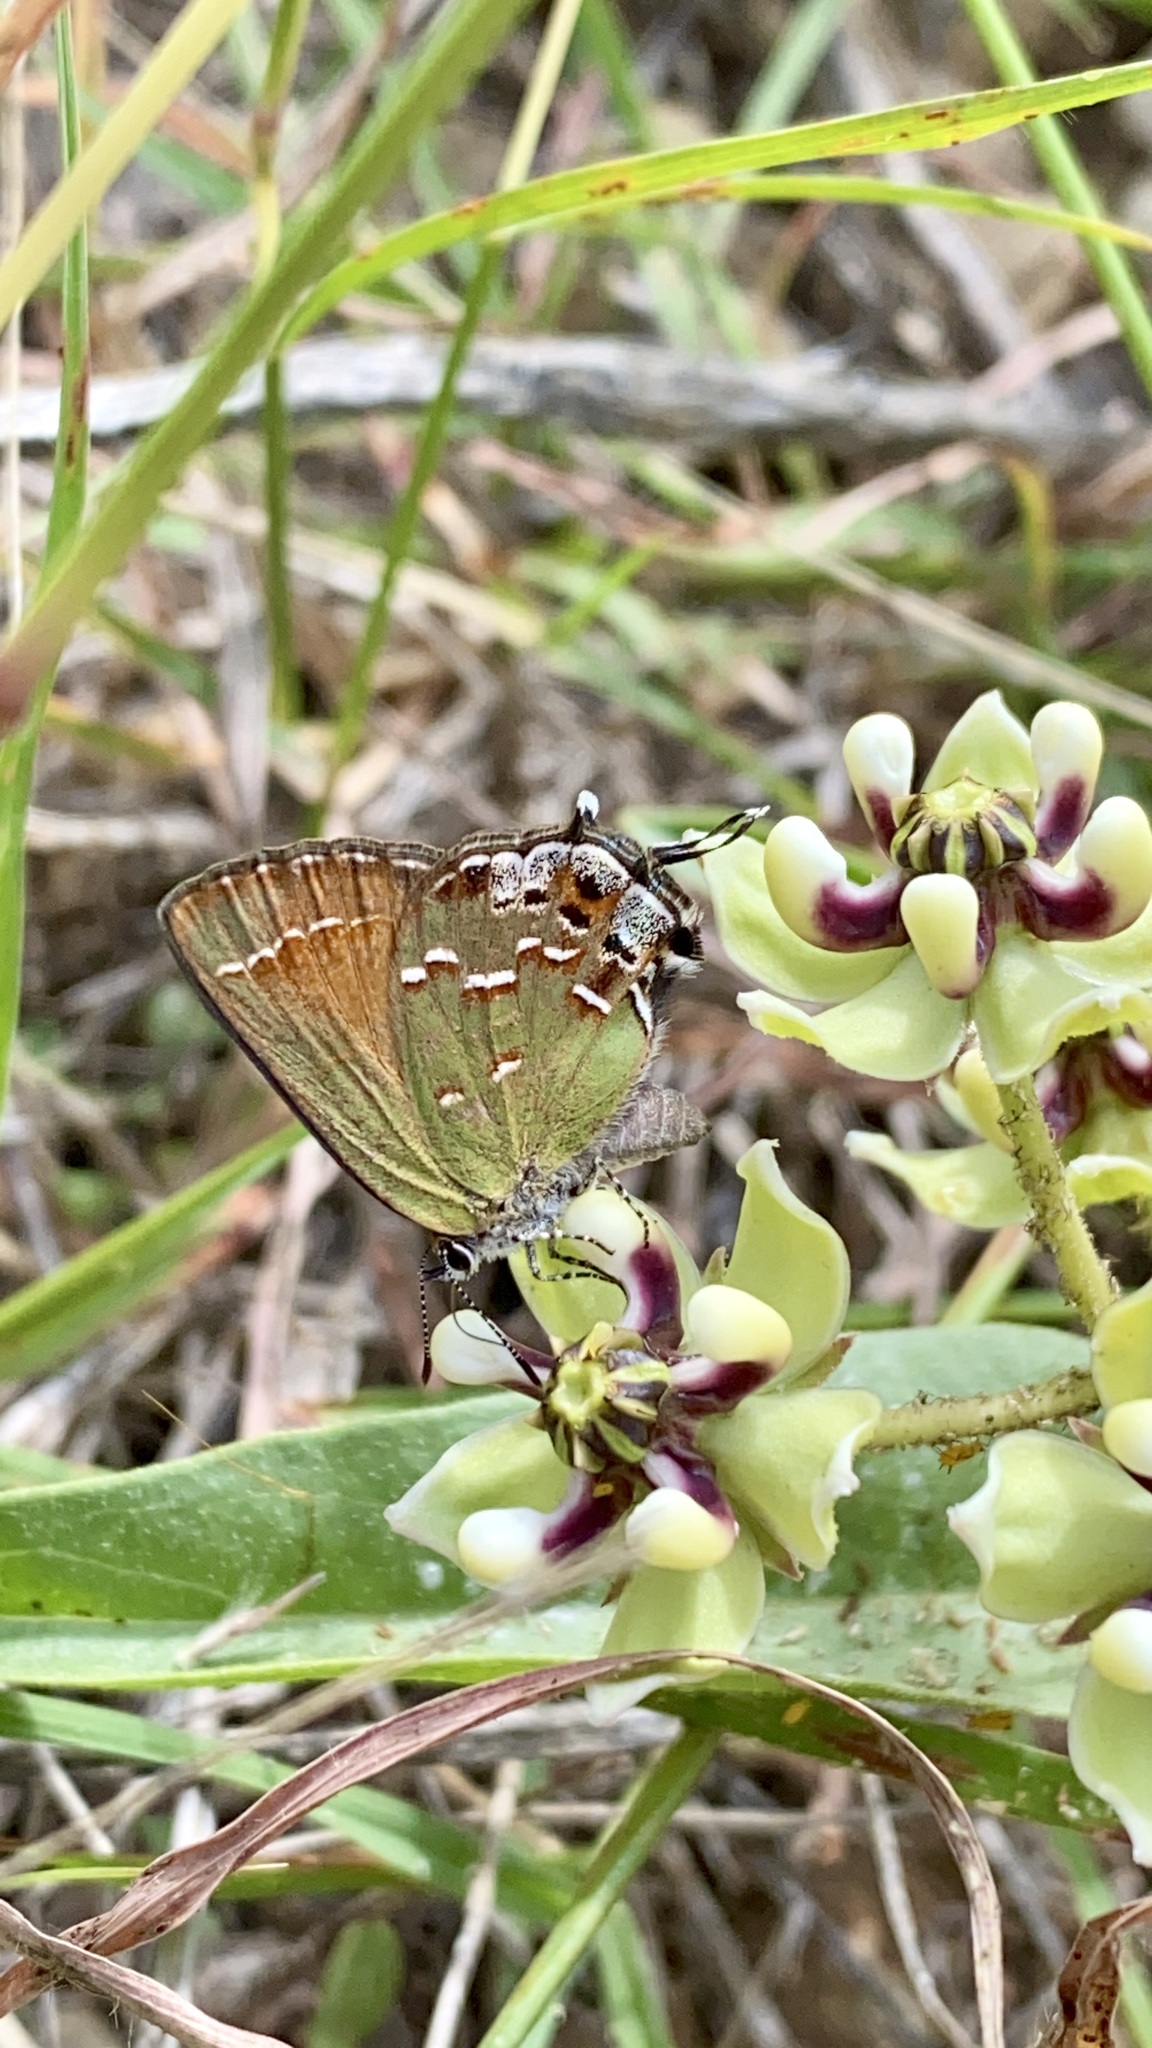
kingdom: Animalia
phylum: Arthropoda
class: Insecta
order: Lepidoptera
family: Lycaenidae
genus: Mitoura
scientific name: Mitoura gryneus
